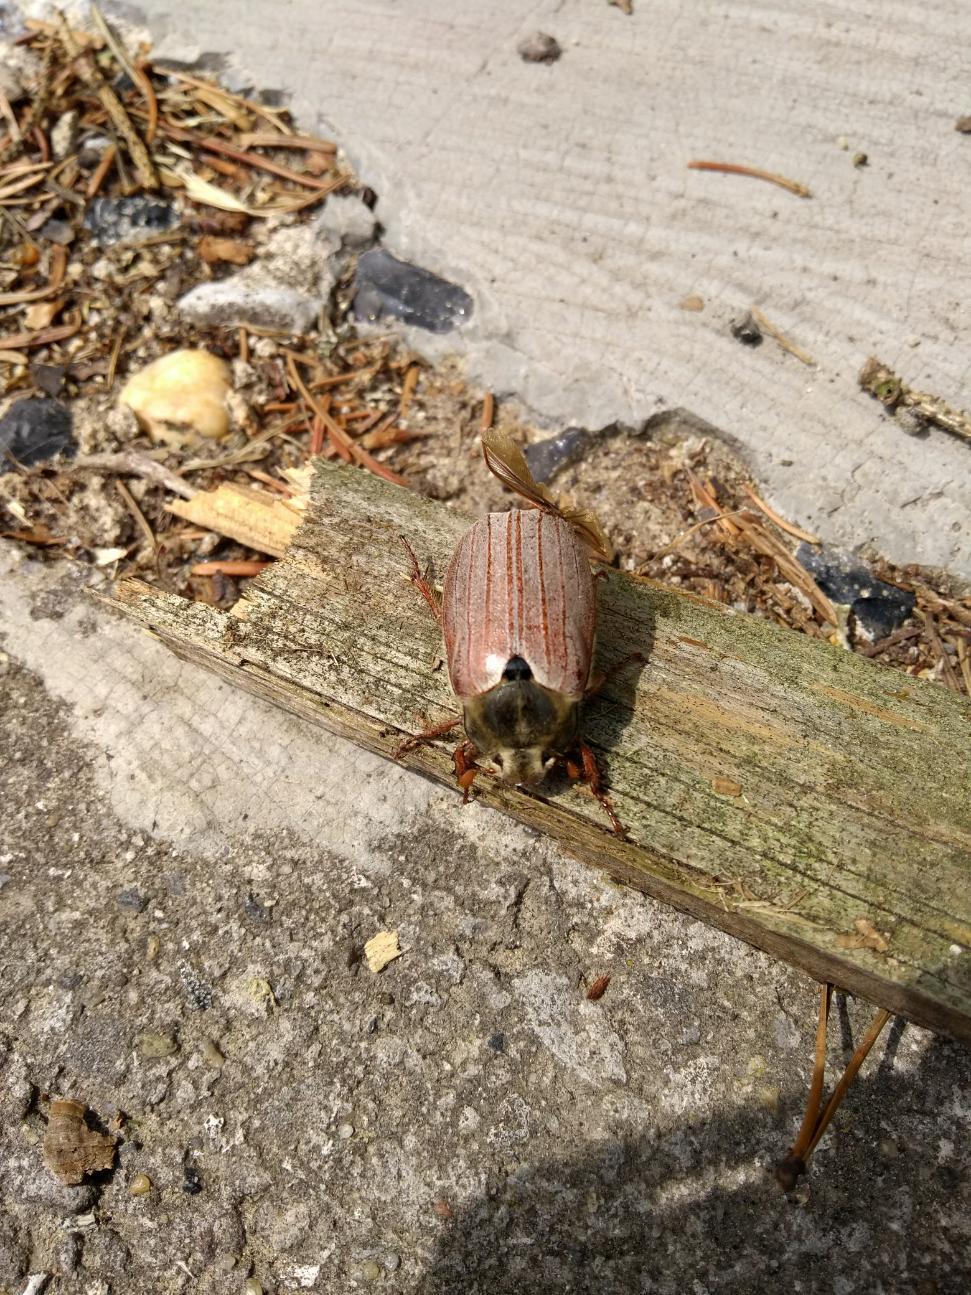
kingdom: Animalia
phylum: Arthropoda
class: Insecta
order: Coleoptera
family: Scarabaeidae
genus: Melolontha
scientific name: Melolontha melolontha
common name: Cockchafer maybeetle
